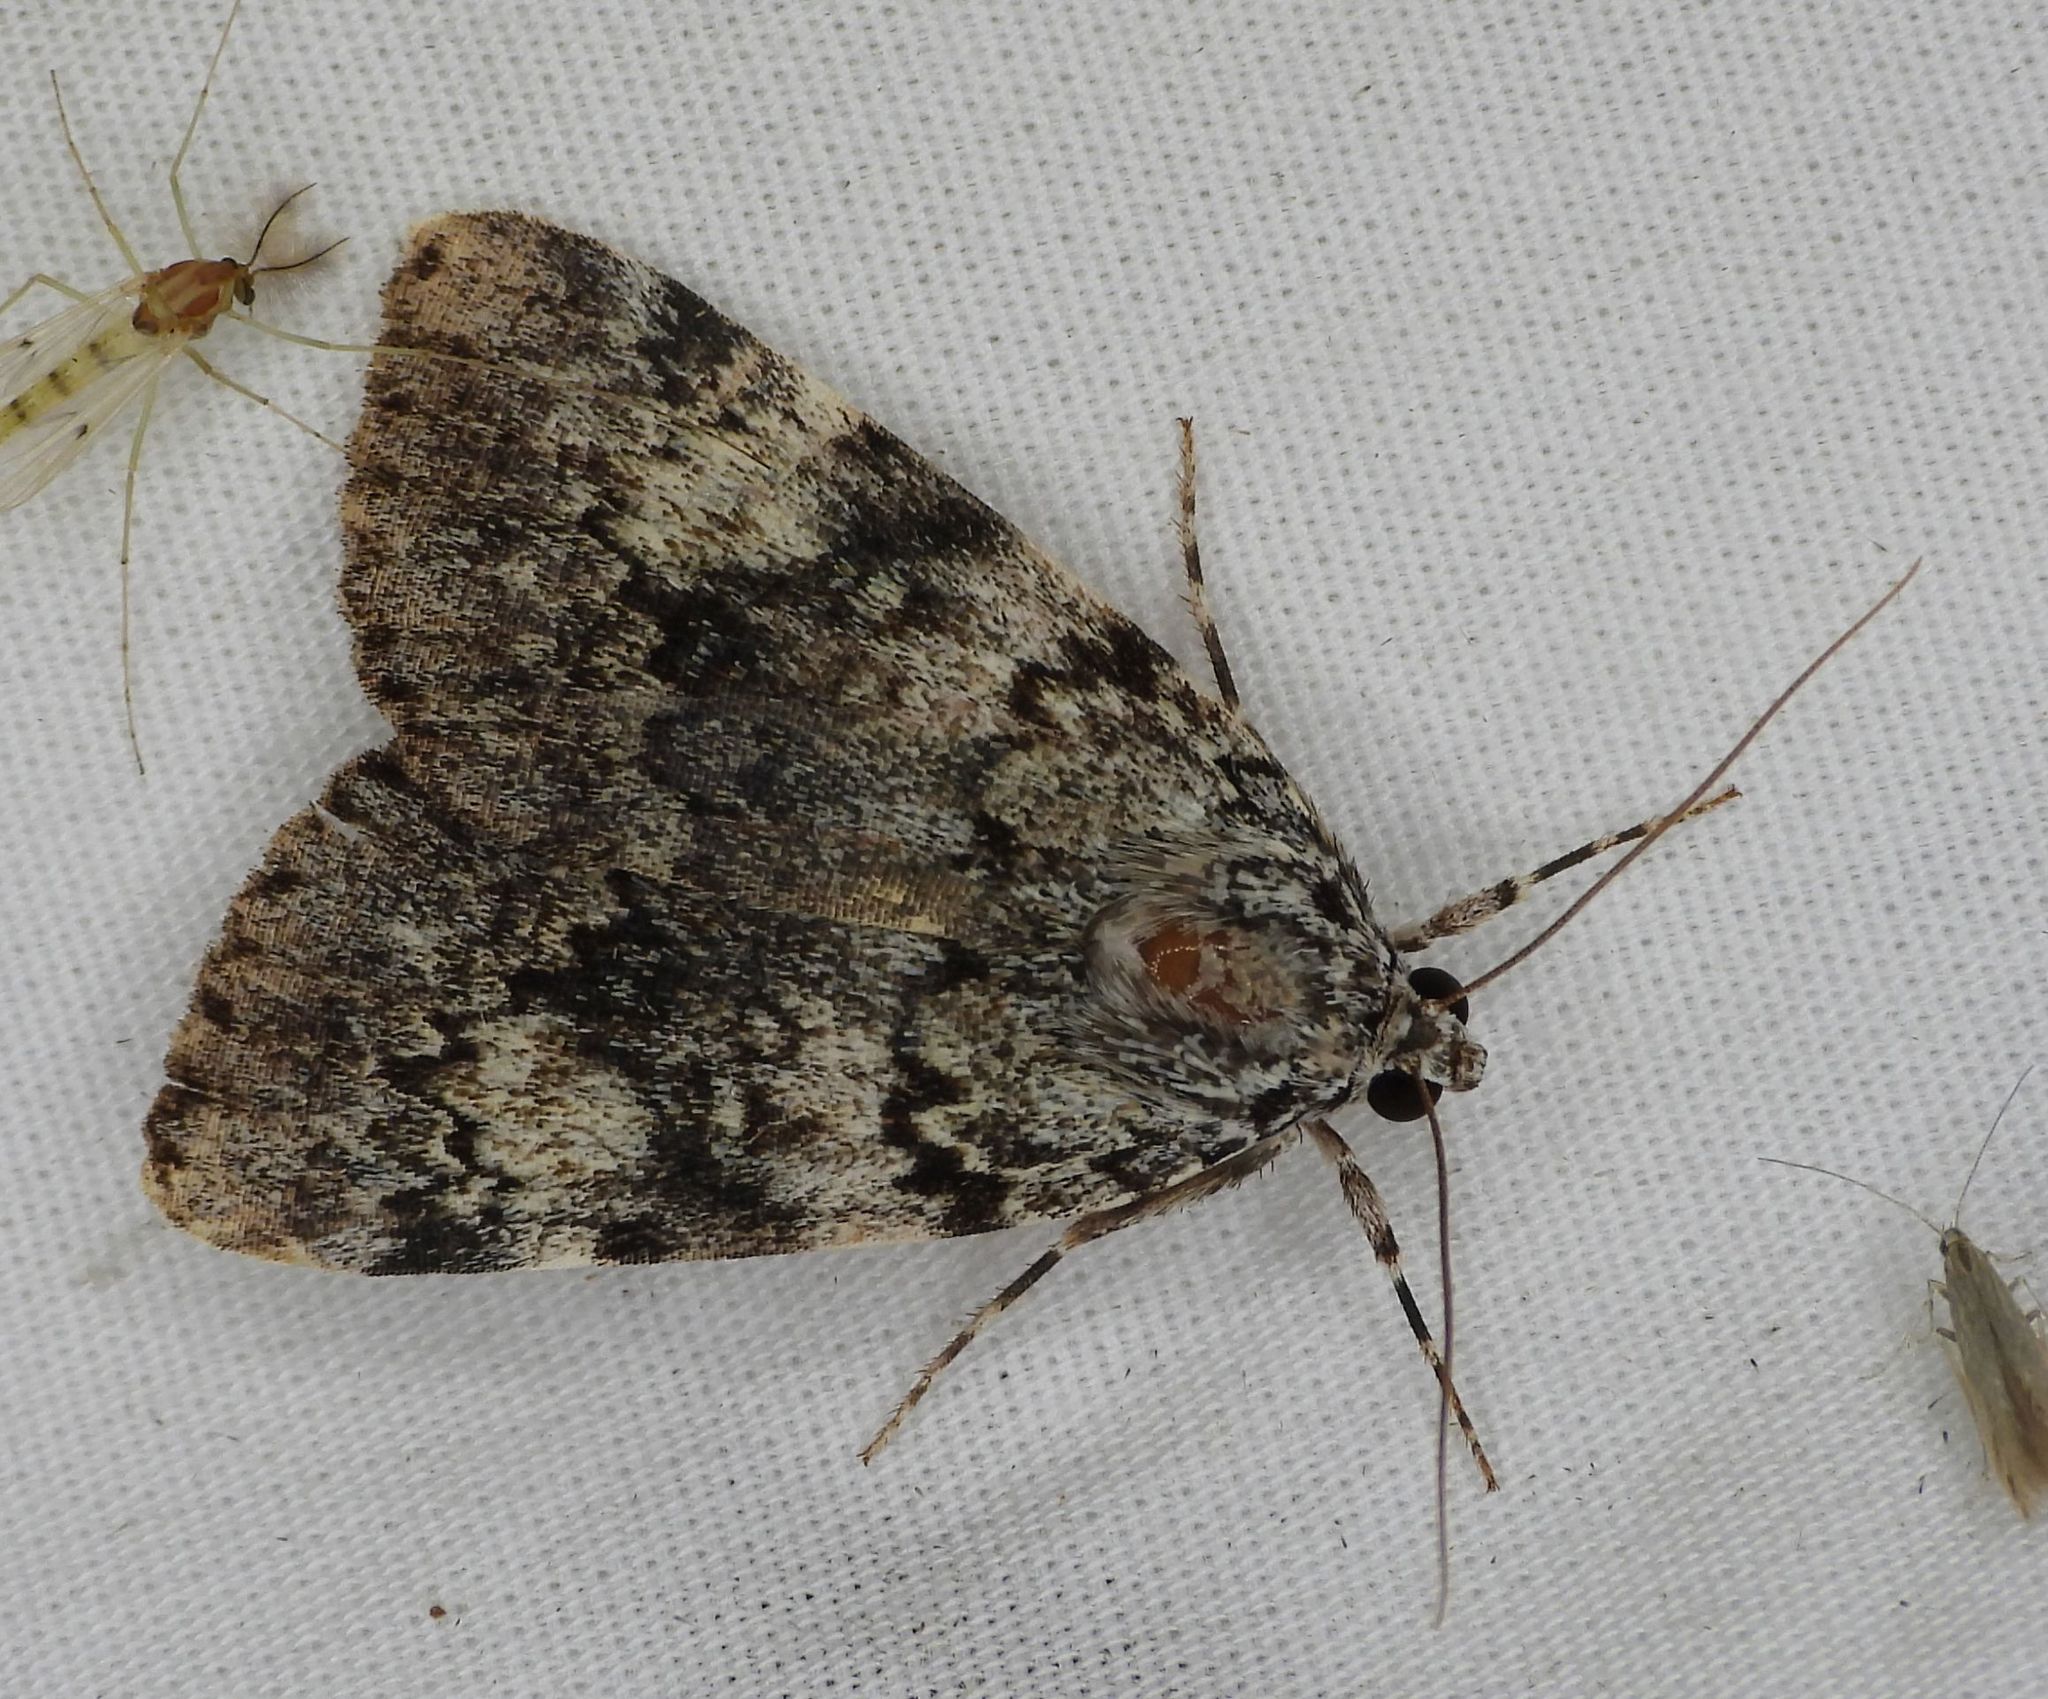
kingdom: Animalia
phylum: Arthropoda
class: Insecta
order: Lepidoptera
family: Erebidae
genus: Catocala
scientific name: Catocala lineella
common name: Little lined underwing
